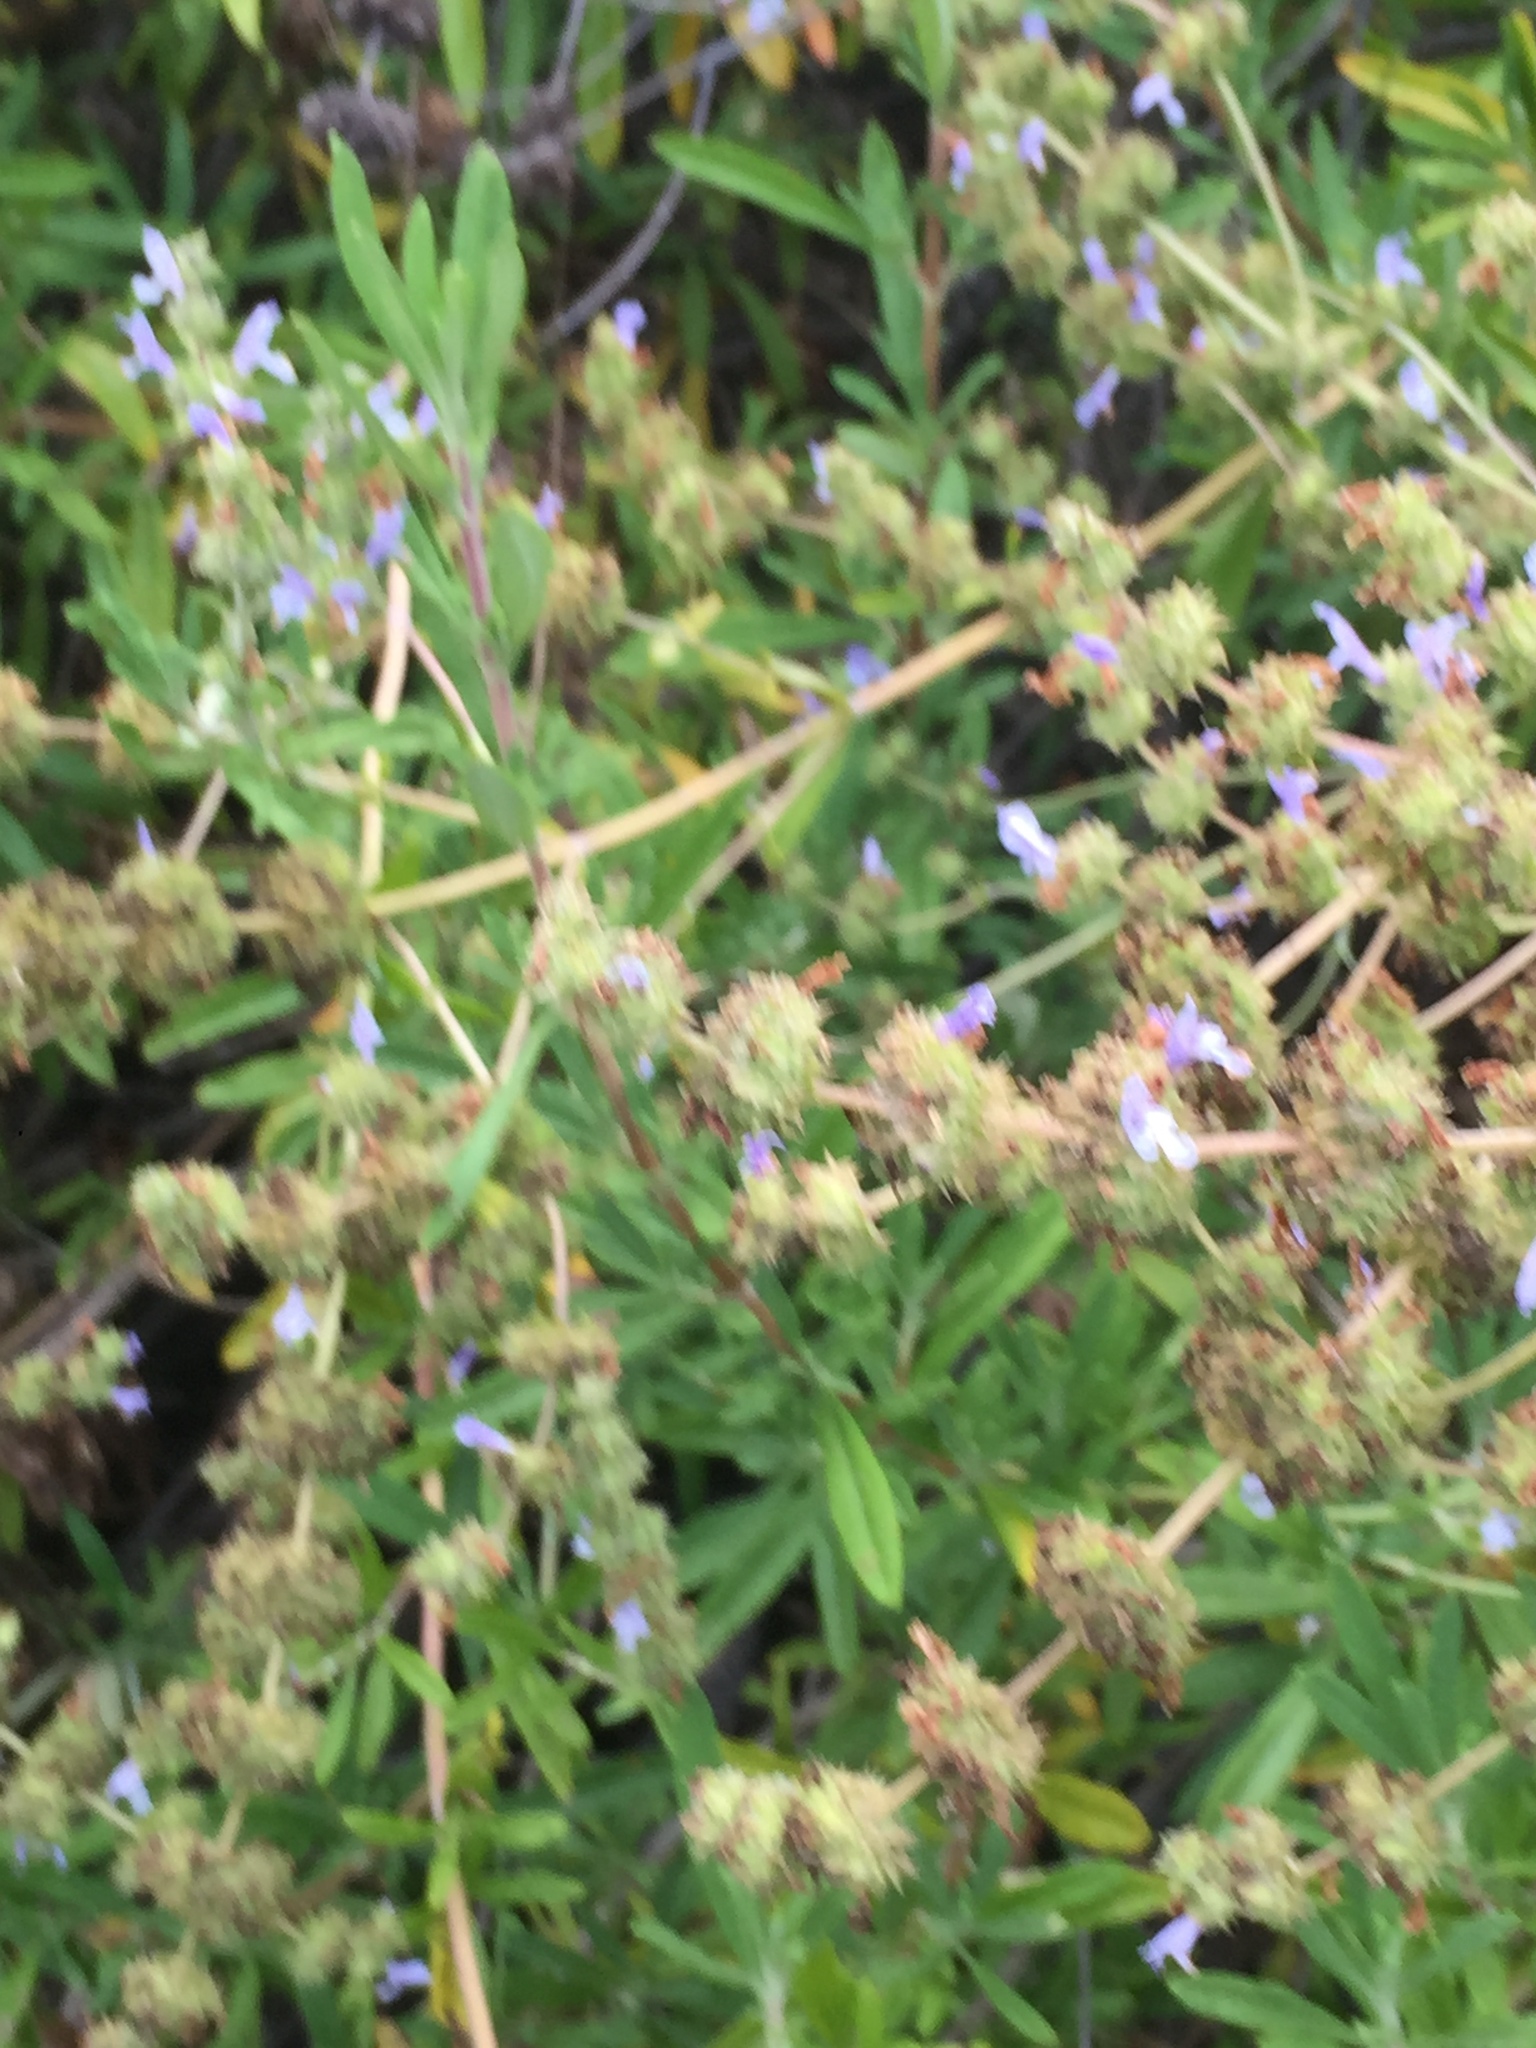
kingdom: Plantae
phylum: Tracheophyta
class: Magnoliopsida
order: Lamiales
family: Lamiaceae
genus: Salvia
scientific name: Salvia mellifera
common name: Black sage
